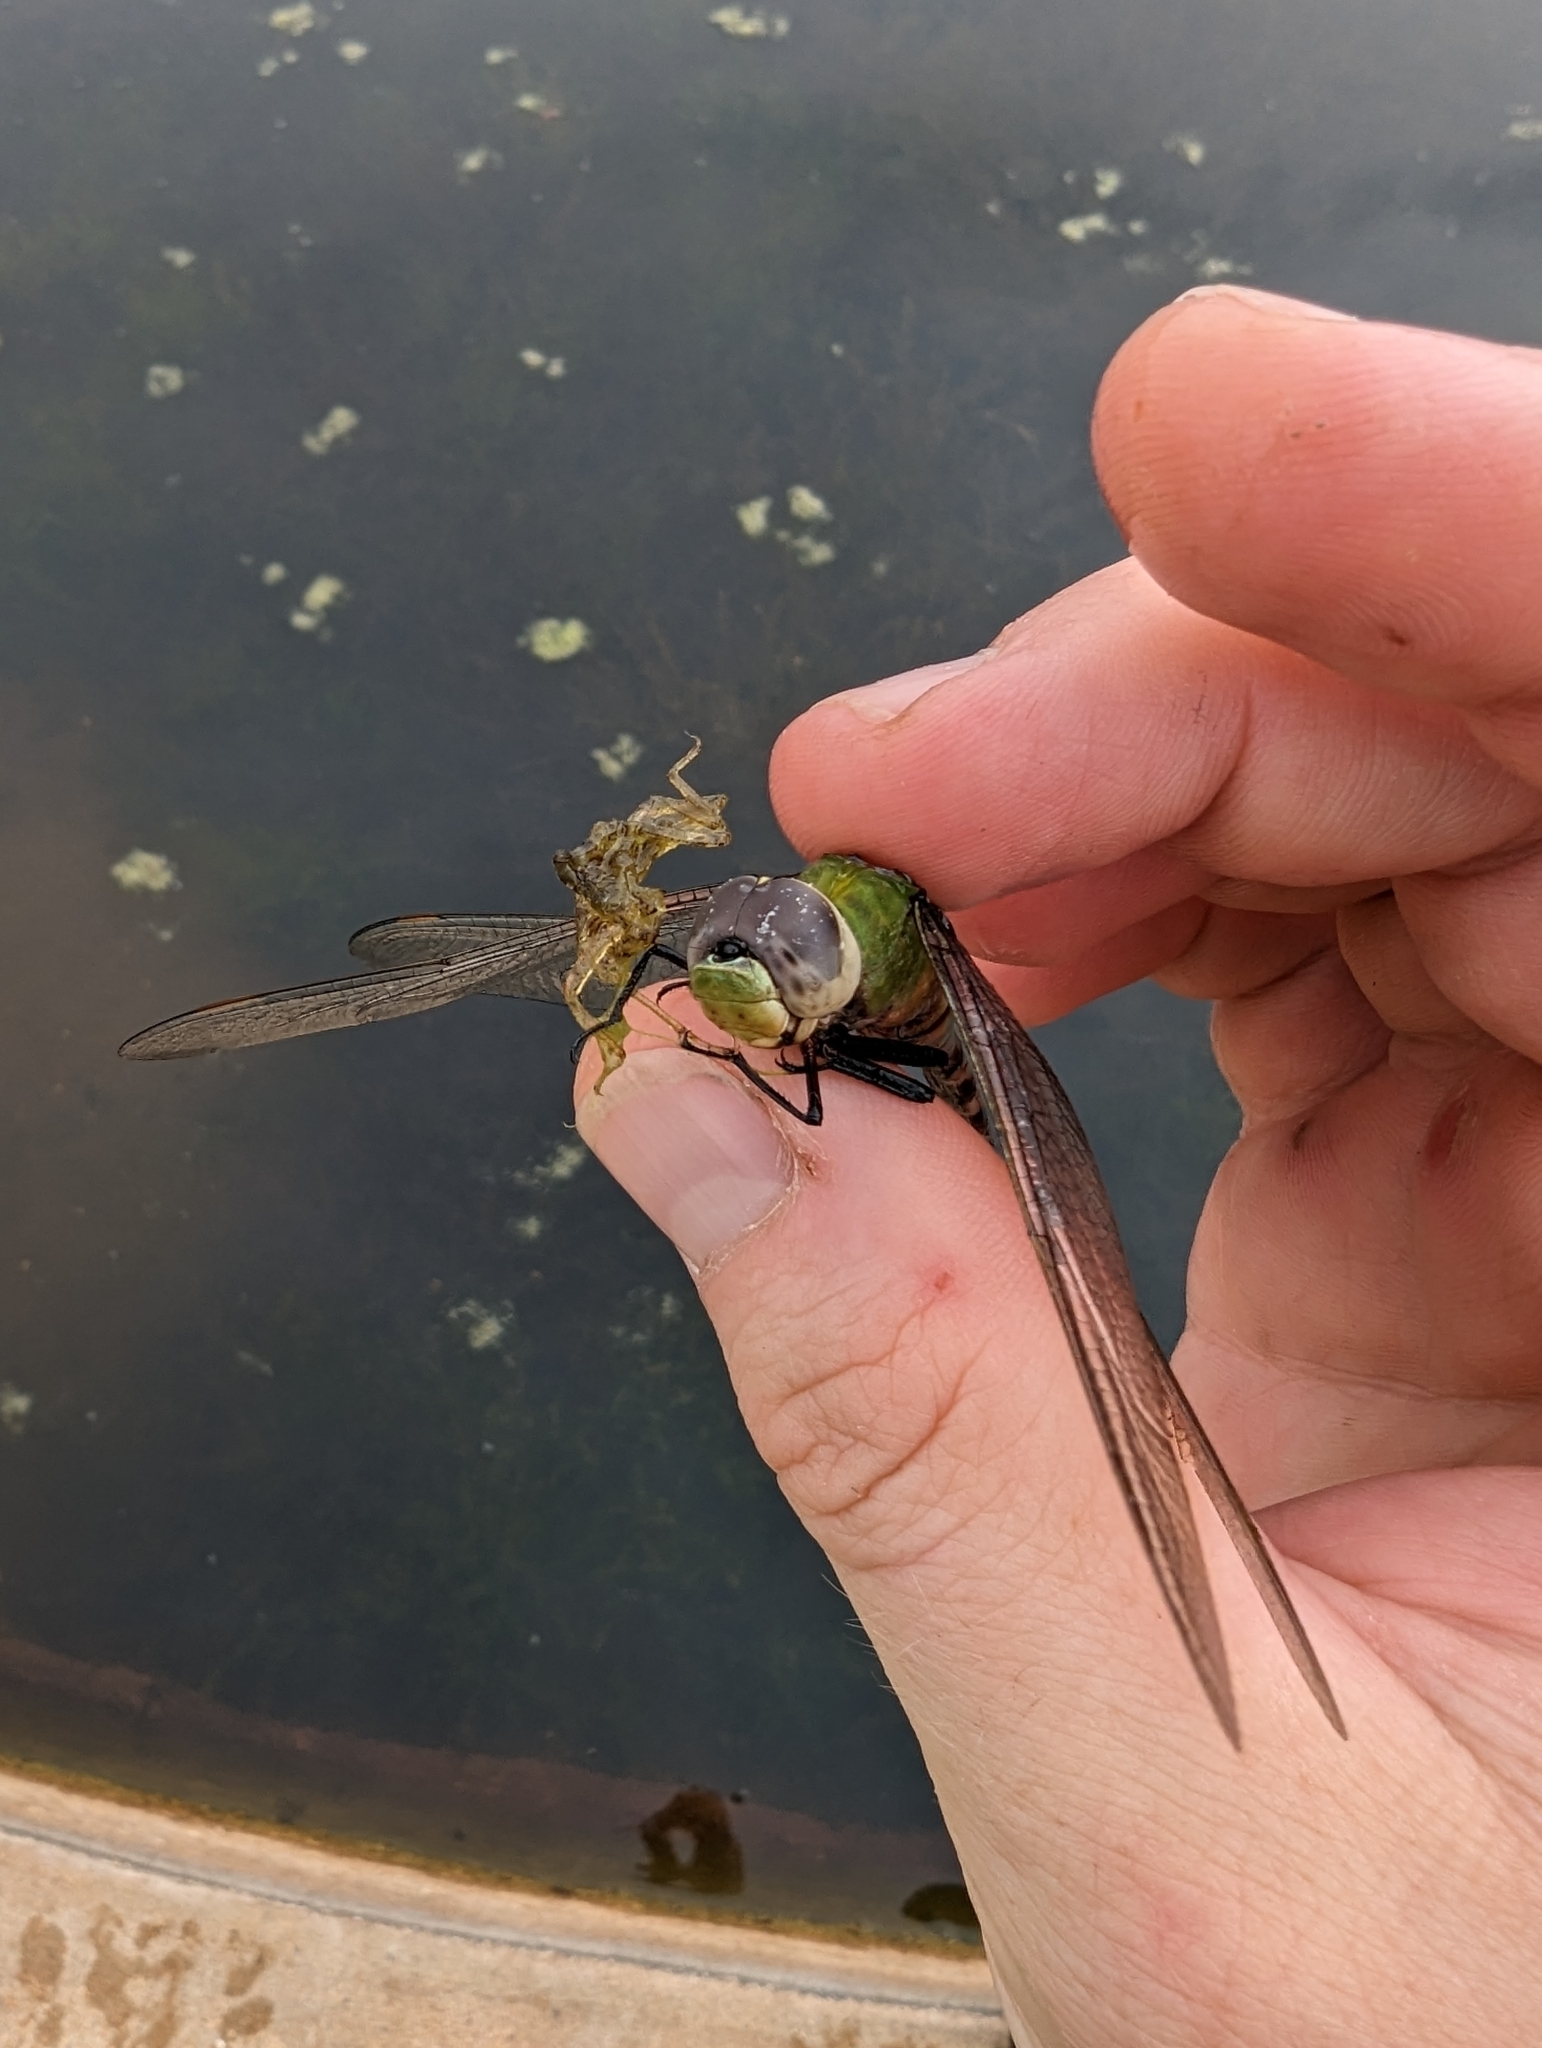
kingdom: Animalia
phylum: Arthropoda
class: Insecta
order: Odonata
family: Aeshnidae
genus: Anax
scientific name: Anax amazili
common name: Amazon darner
